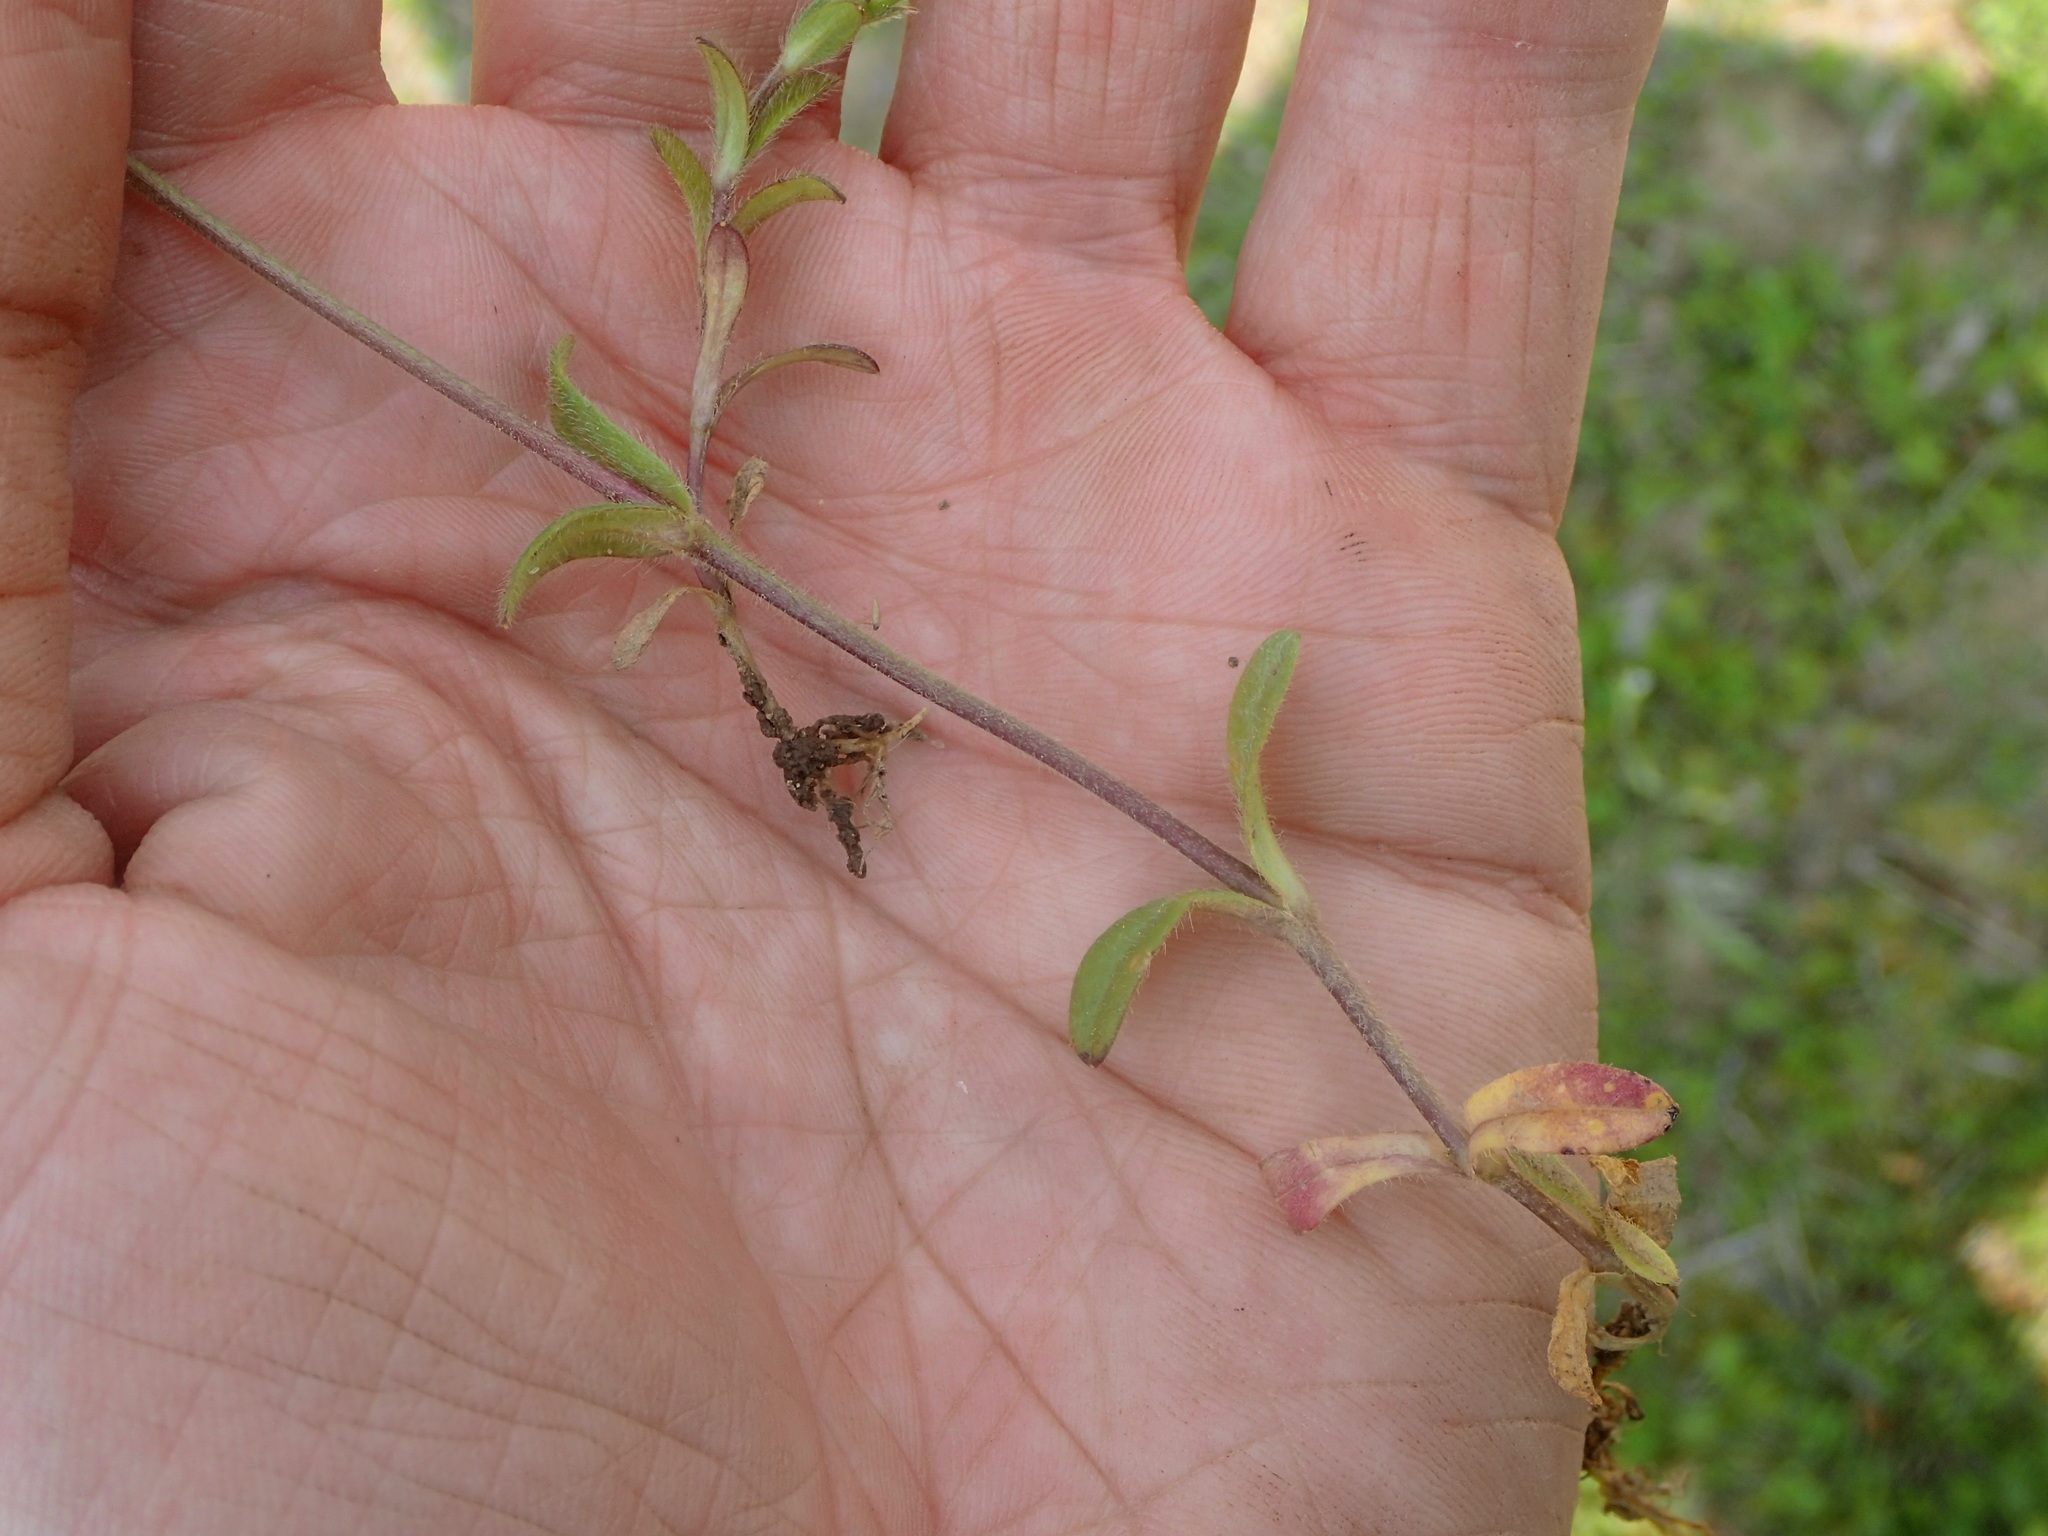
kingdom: Plantae
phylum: Tracheophyta
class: Magnoliopsida
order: Caryophyllales
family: Caryophyllaceae
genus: Cerastium
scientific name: Cerastium fontanum
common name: Common mouse-ear
